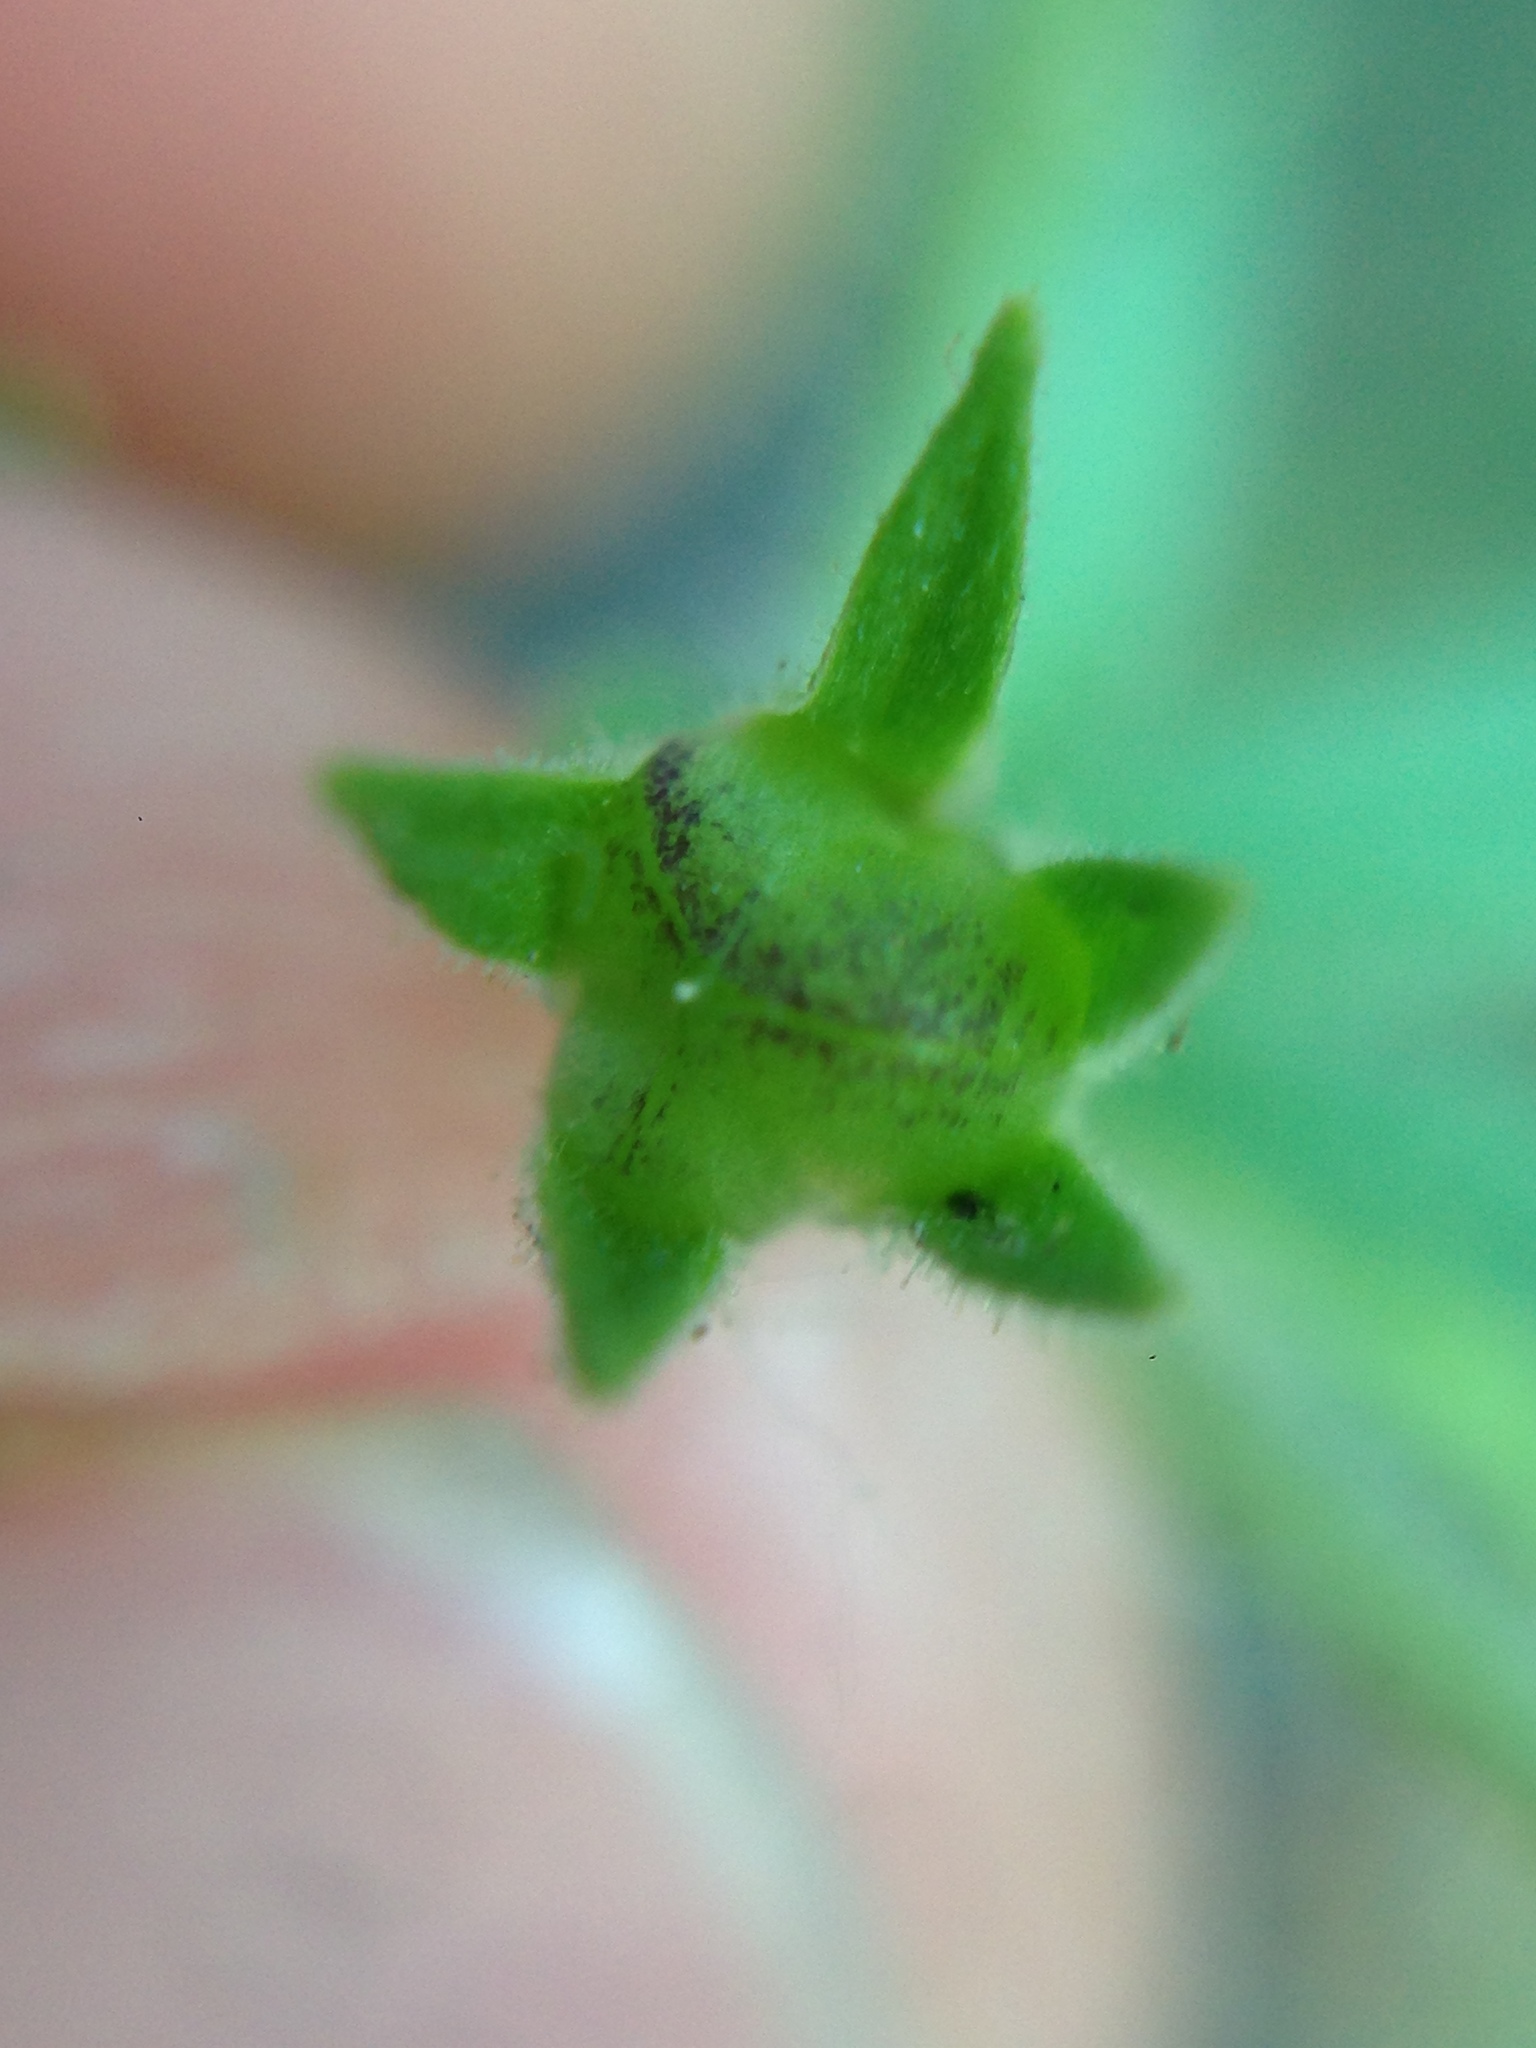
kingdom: Plantae
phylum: Tracheophyta
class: Magnoliopsida
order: Ericales
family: Polemoniaceae
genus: Allophyllum
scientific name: Allophyllum glutinosum
